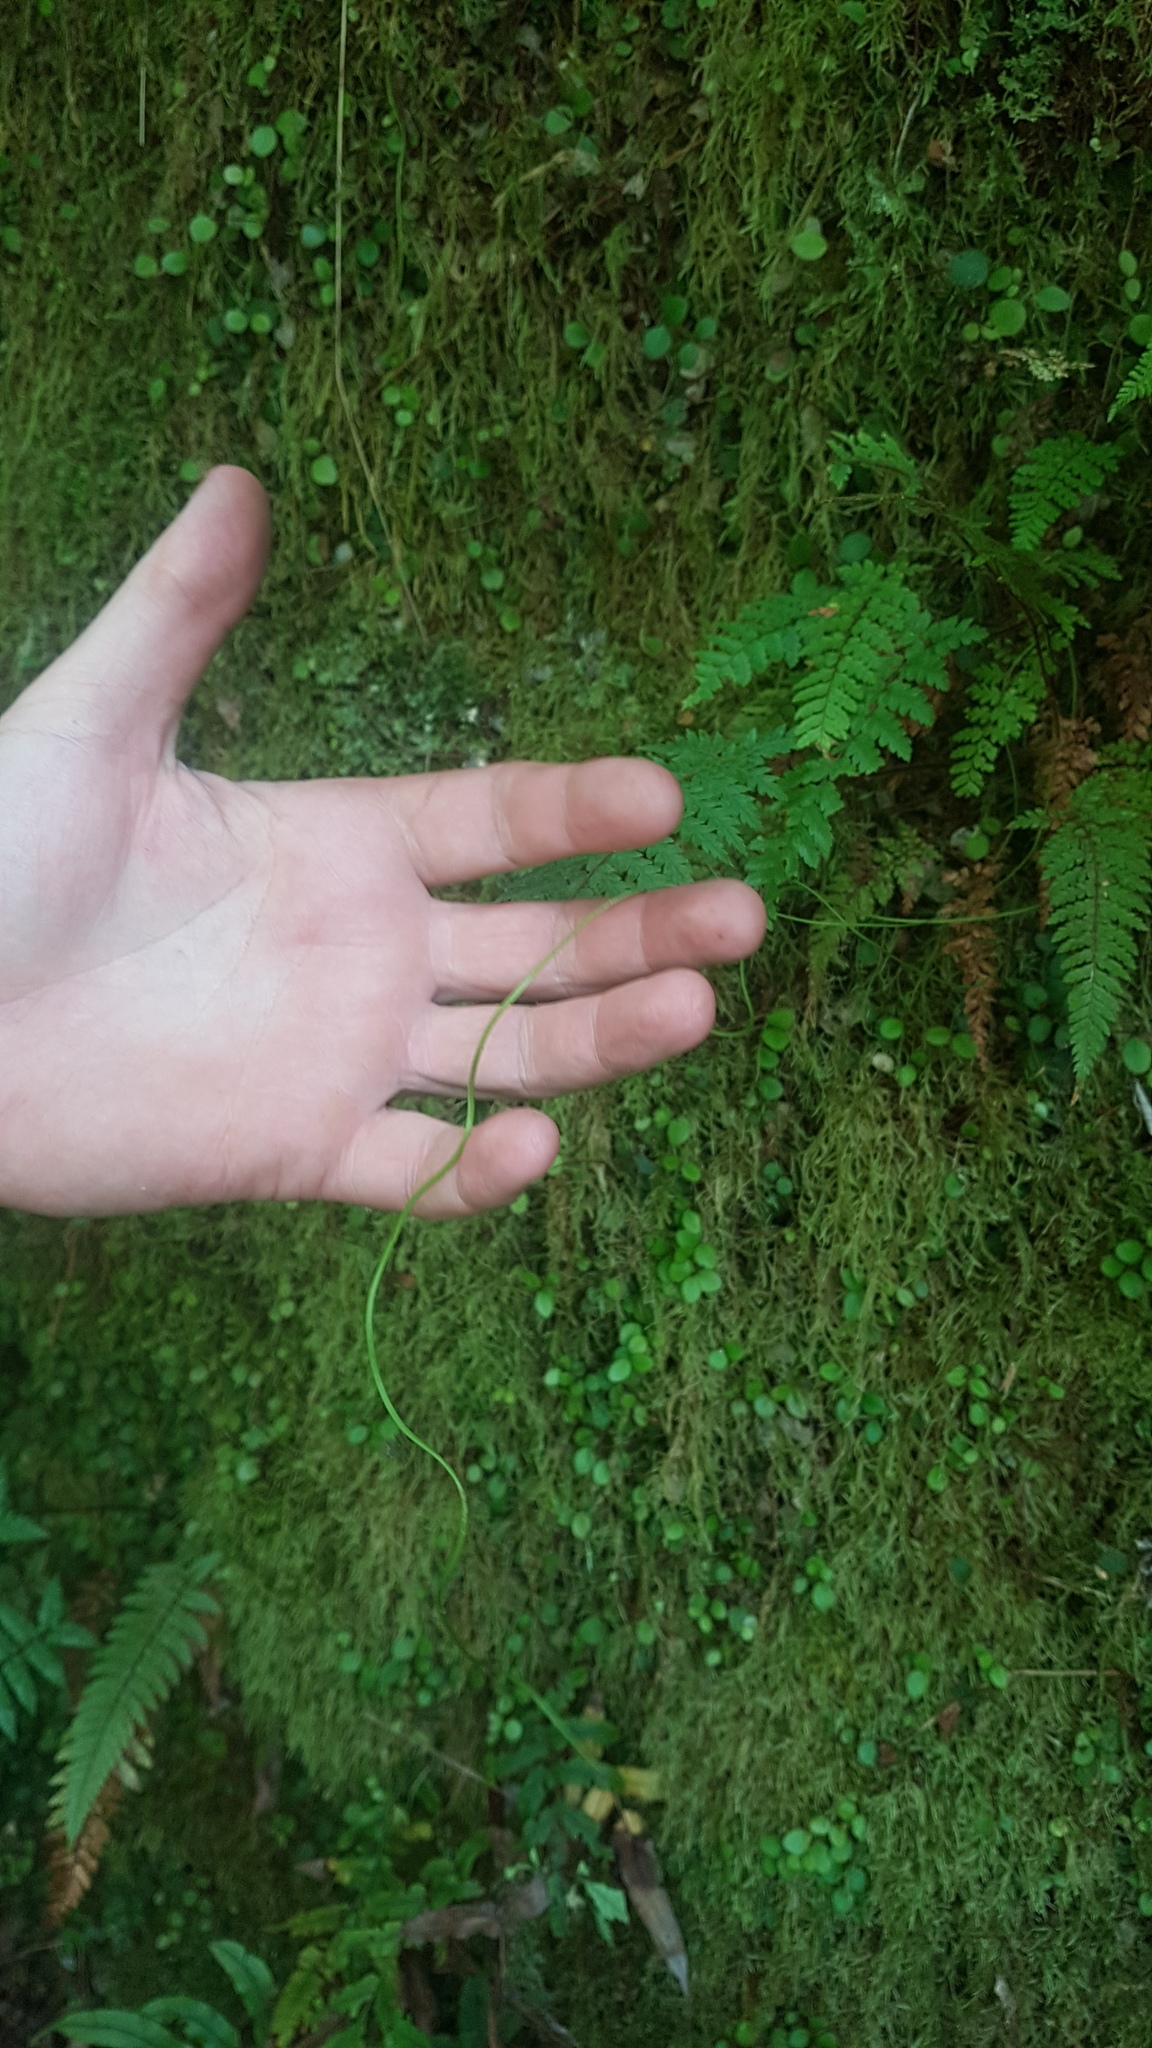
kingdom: Plantae
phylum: Tracheophyta
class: Magnoliopsida
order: Caryophyllales
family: Droseraceae
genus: Drosera
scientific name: Drosera binata
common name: Forked sundew
